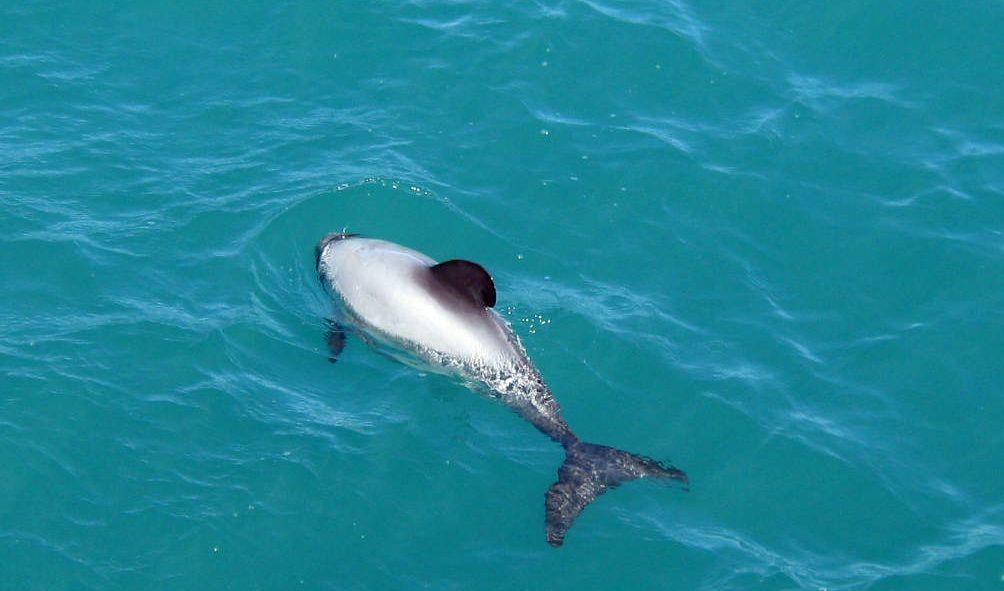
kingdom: Animalia
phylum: Chordata
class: Mammalia
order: Cetacea
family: Delphinidae
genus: Cephalorhynchus
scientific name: Cephalorhynchus hectori
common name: Hector's dolphin
